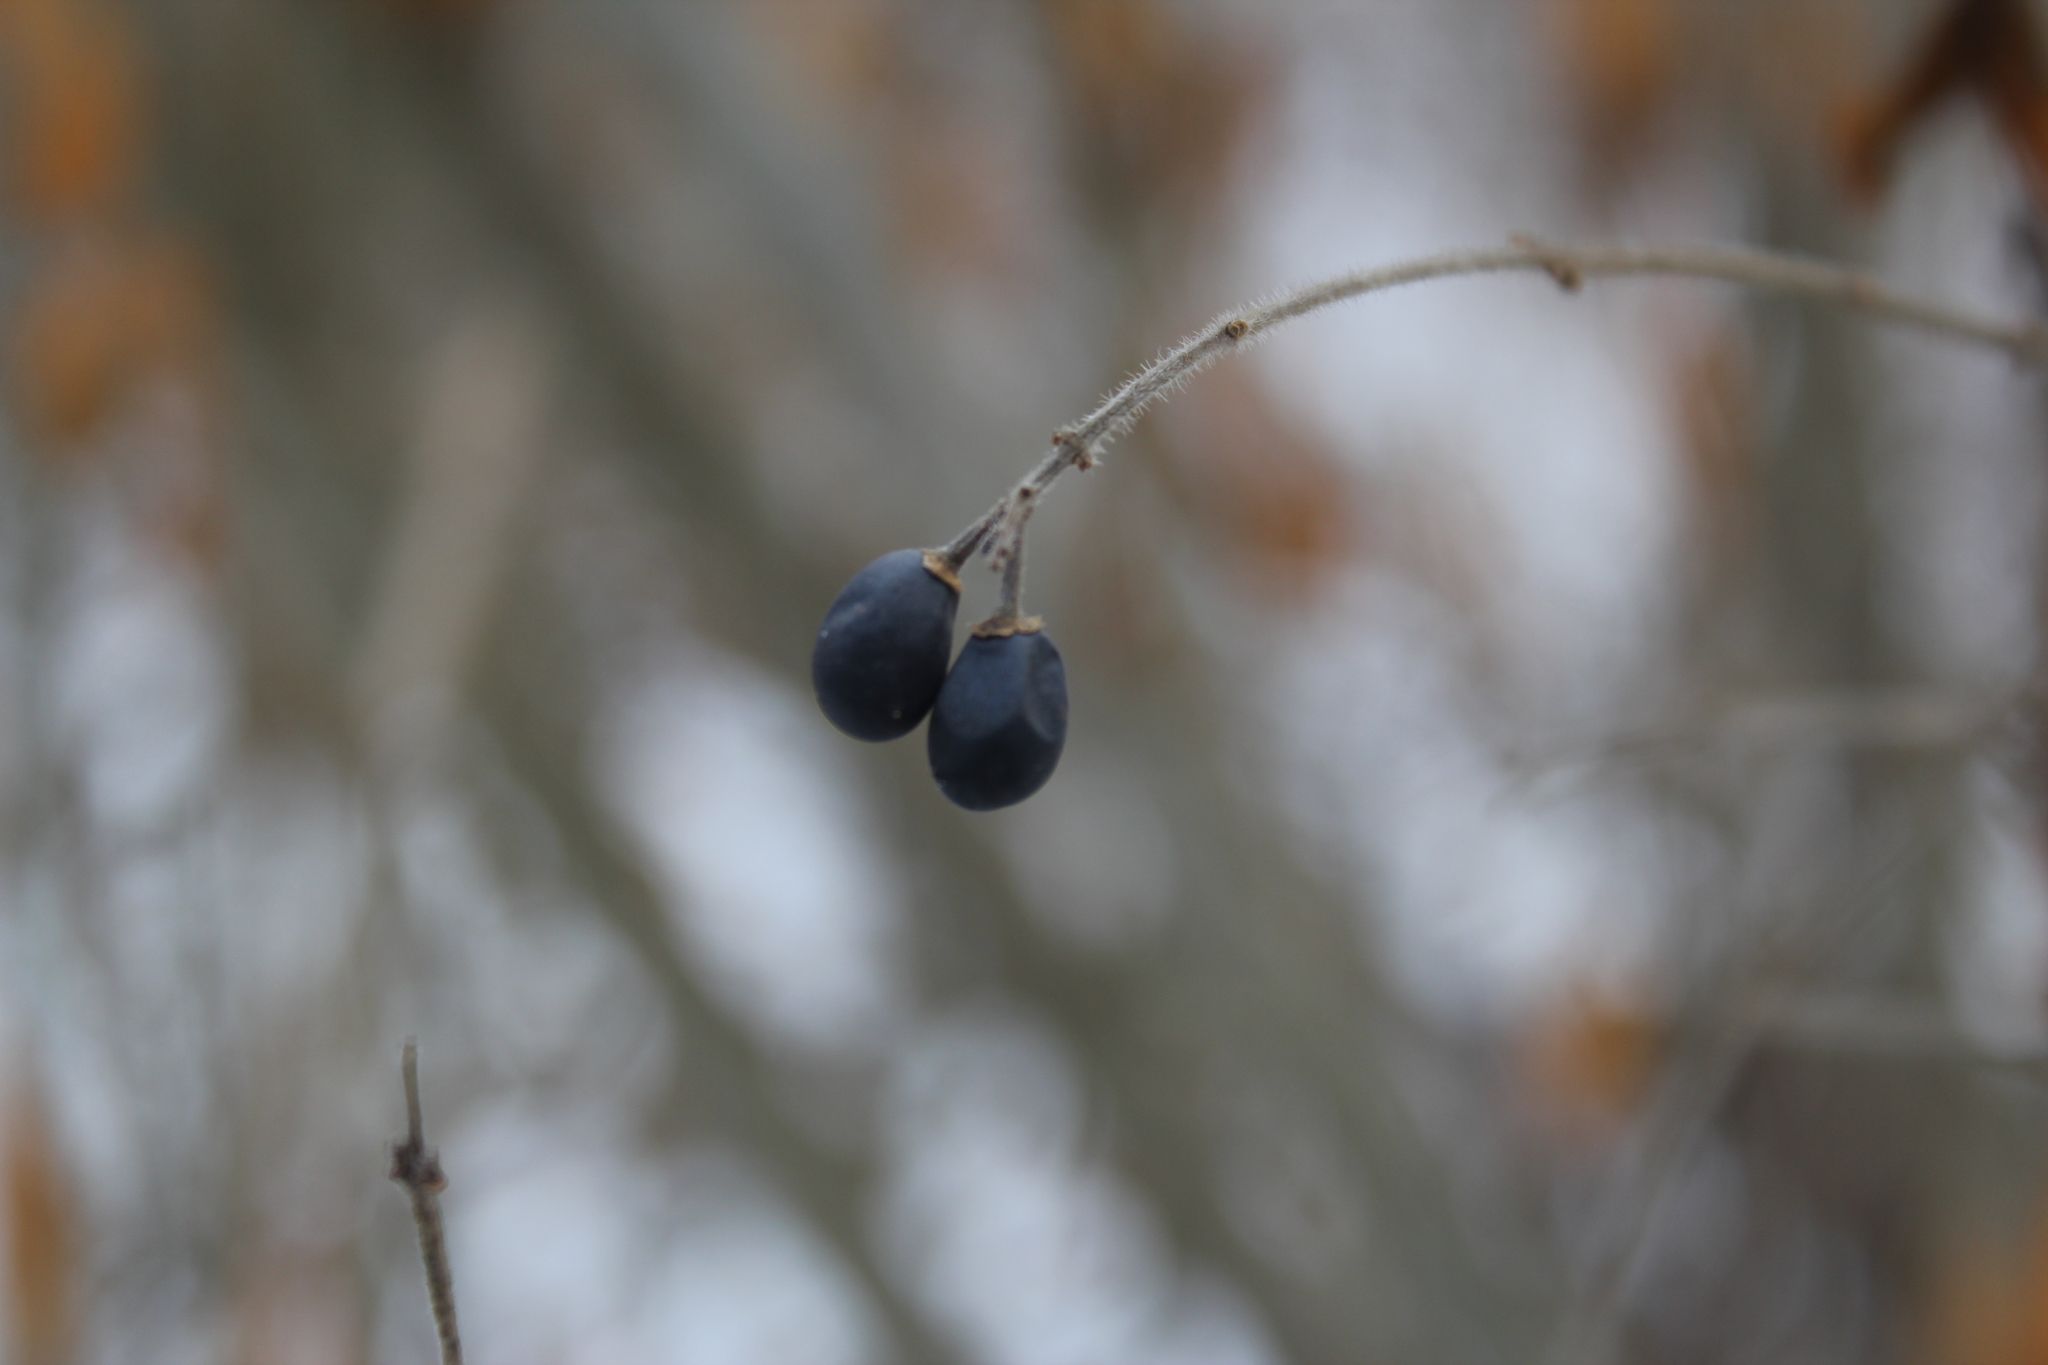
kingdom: Plantae
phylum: Tracheophyta
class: Magnoliopsida
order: Lamiales
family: Oleaceae
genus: Ligustrum
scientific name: Ligustrum vulgare
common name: Wild privet
